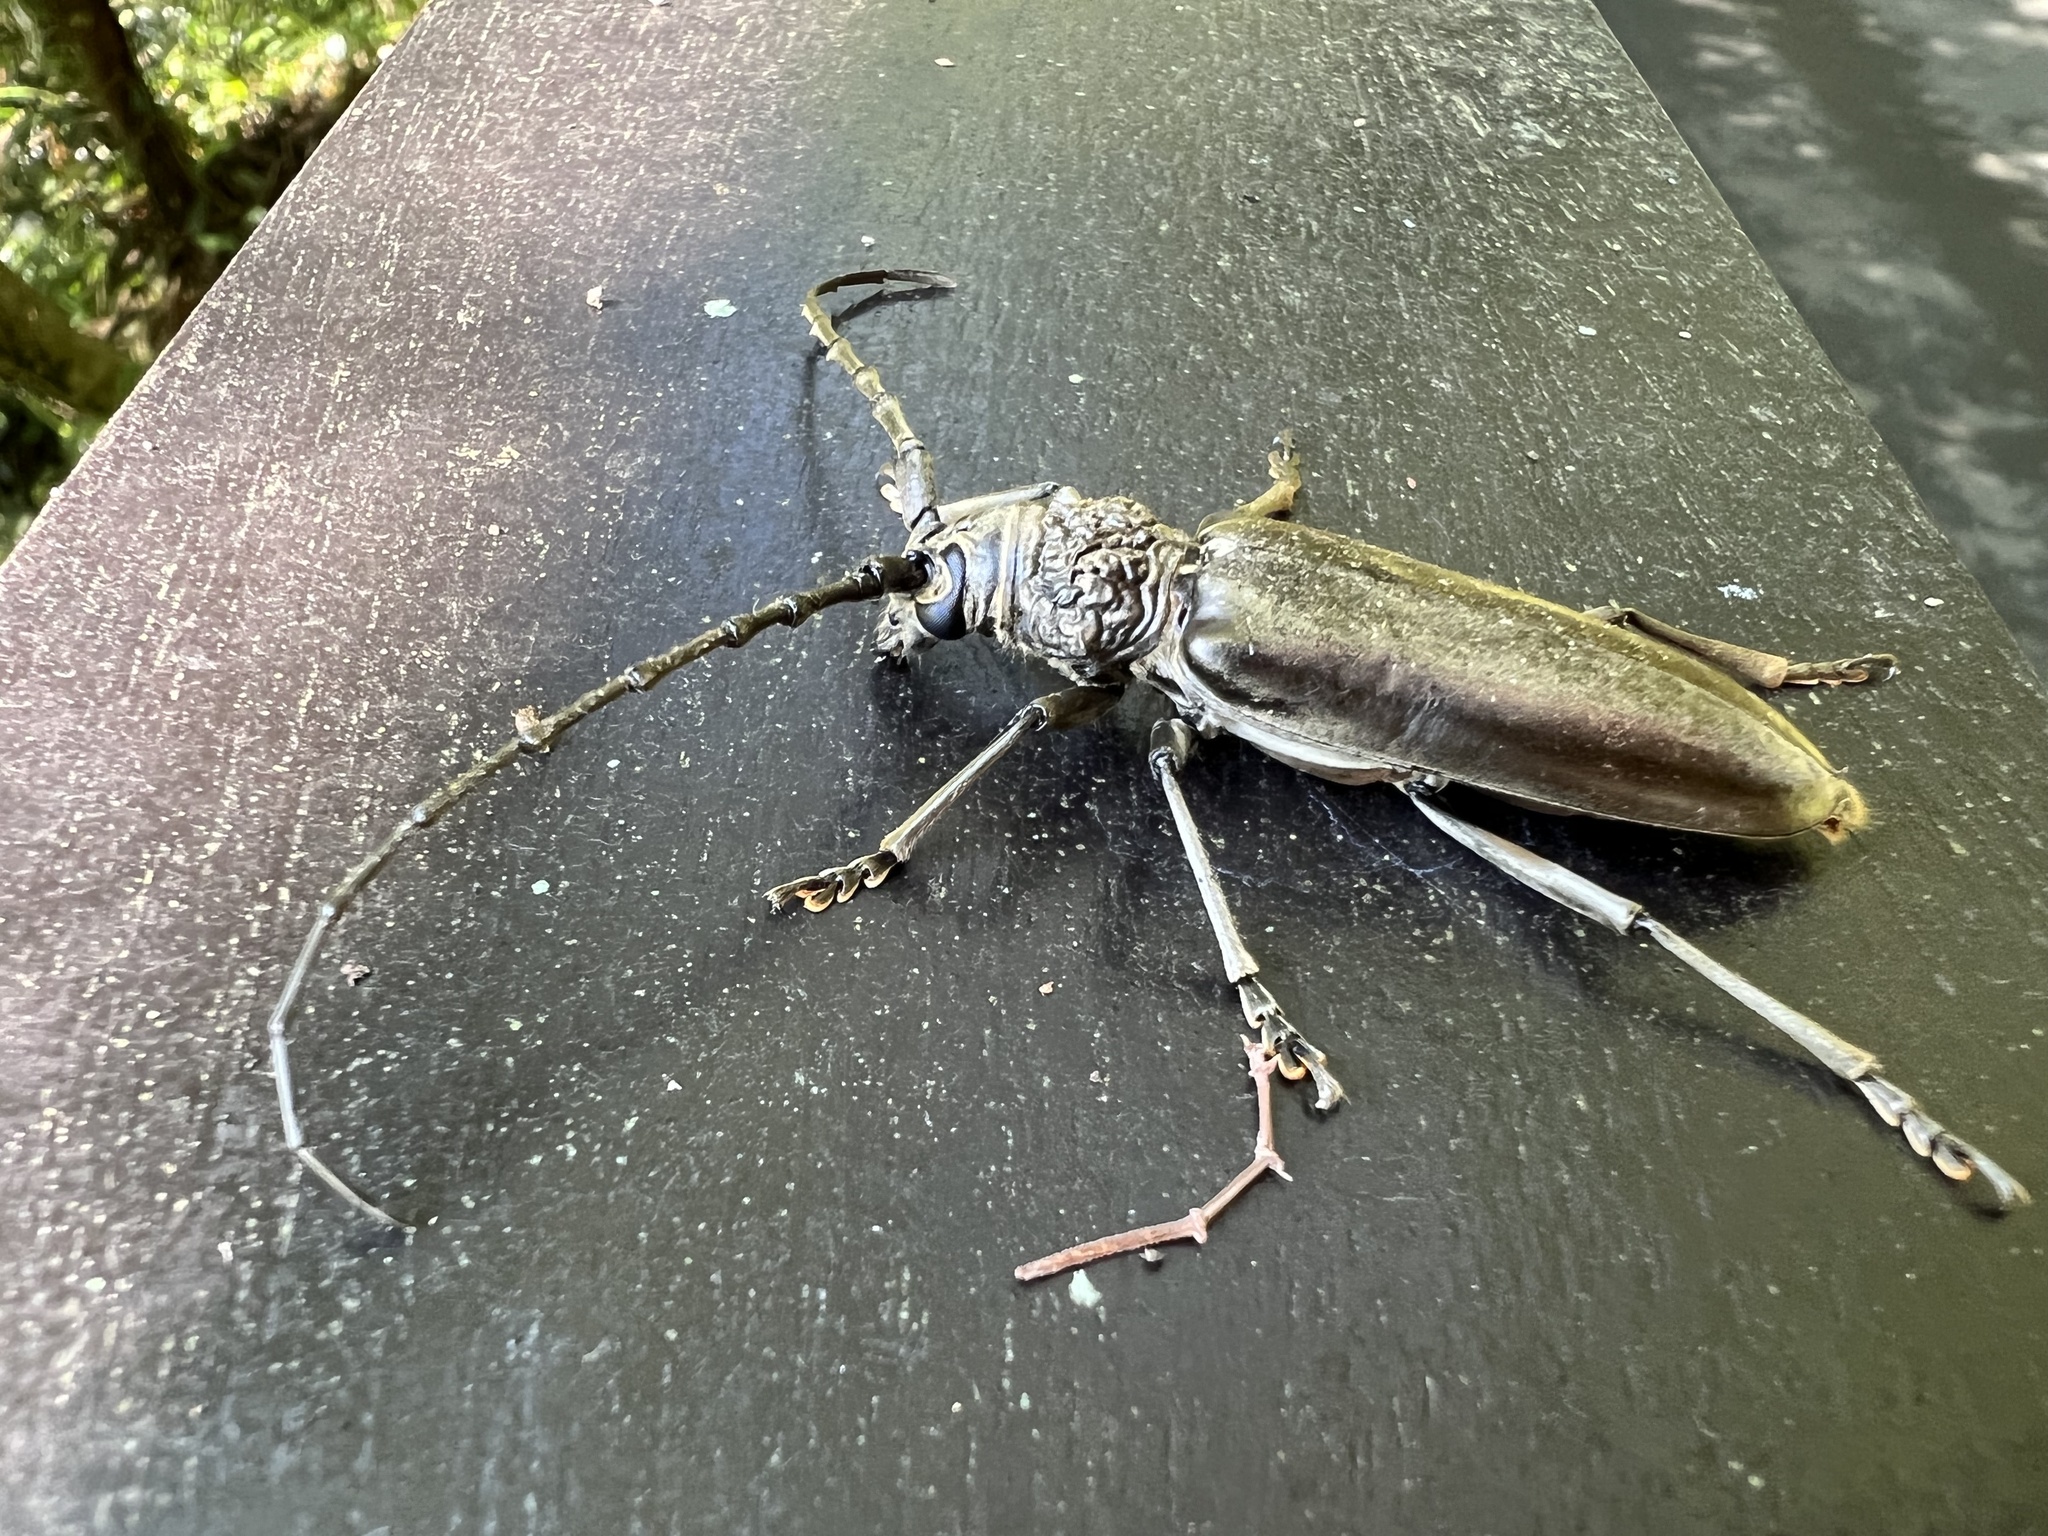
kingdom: Animalia
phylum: Arthropoda
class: Insecta
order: Coleoptera
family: Cerambycidae
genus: Nadezhdiella
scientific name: Nadezhdiella cantori
